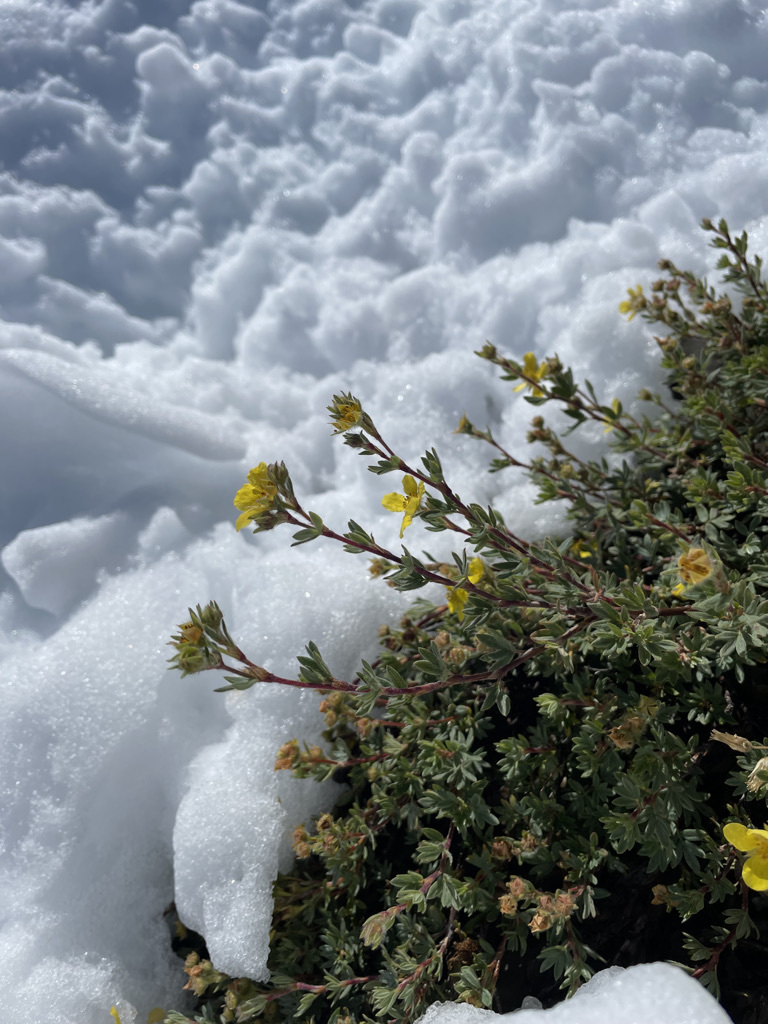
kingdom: Plantae
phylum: Tracheophyta
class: Magnoliopsida
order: Rosales
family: Rosaceae
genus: Dasiphora
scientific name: Dasiphora fruticosa
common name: Shrubby cinquefoil
